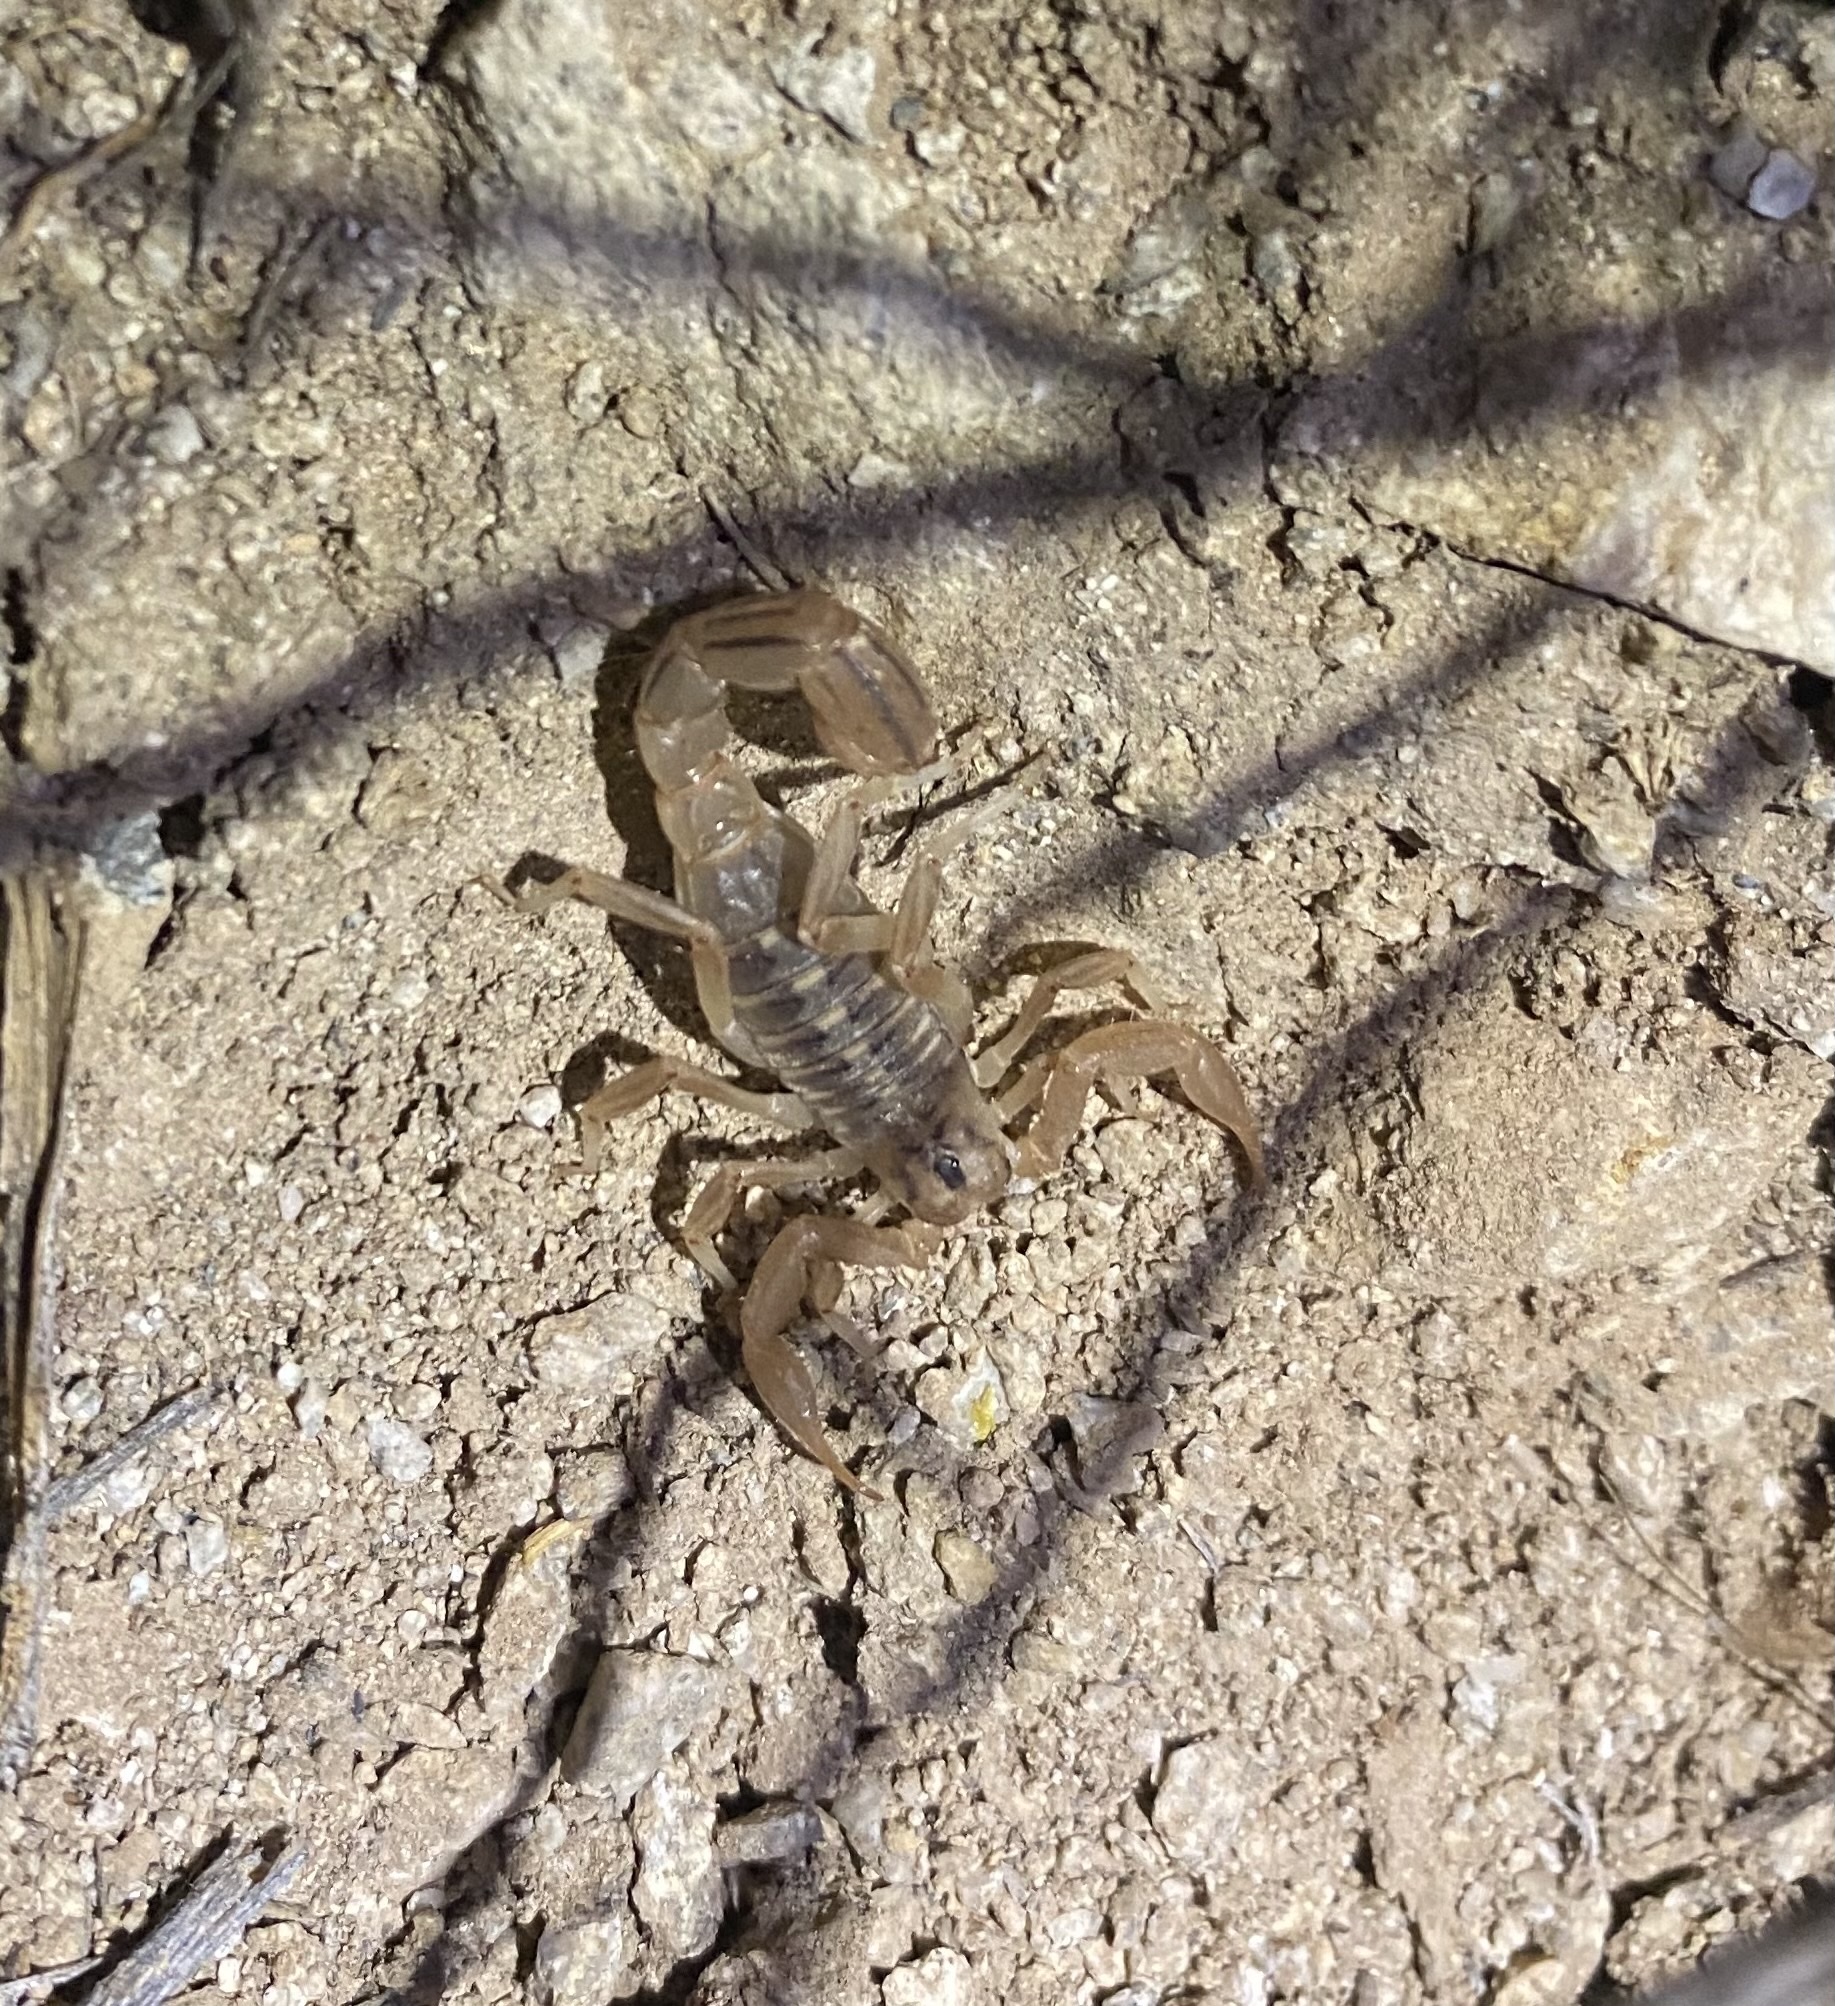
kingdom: Animalia
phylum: Arthropoda
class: Arachnida
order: Scorpiones
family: Vaejovidae
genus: Paravaejovis
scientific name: Paravaejovis spinigerus
